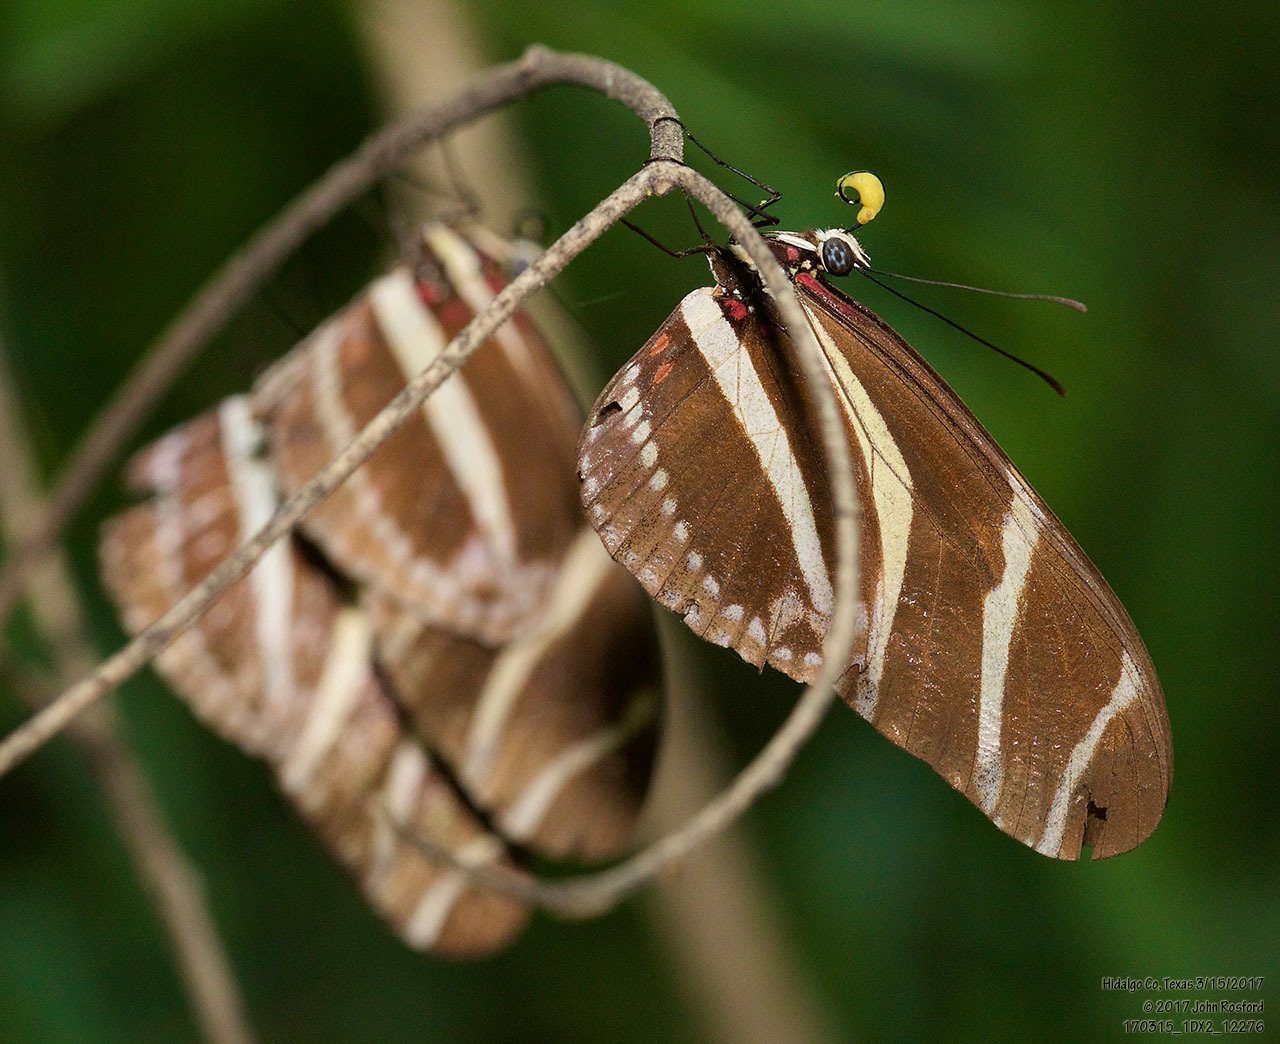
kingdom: Animalia
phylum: Arthropoda
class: Insecta
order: Lepidoptera
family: Nymphalidae
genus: Heliconius
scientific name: Heliconius charithonia
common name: Zebra long wing
